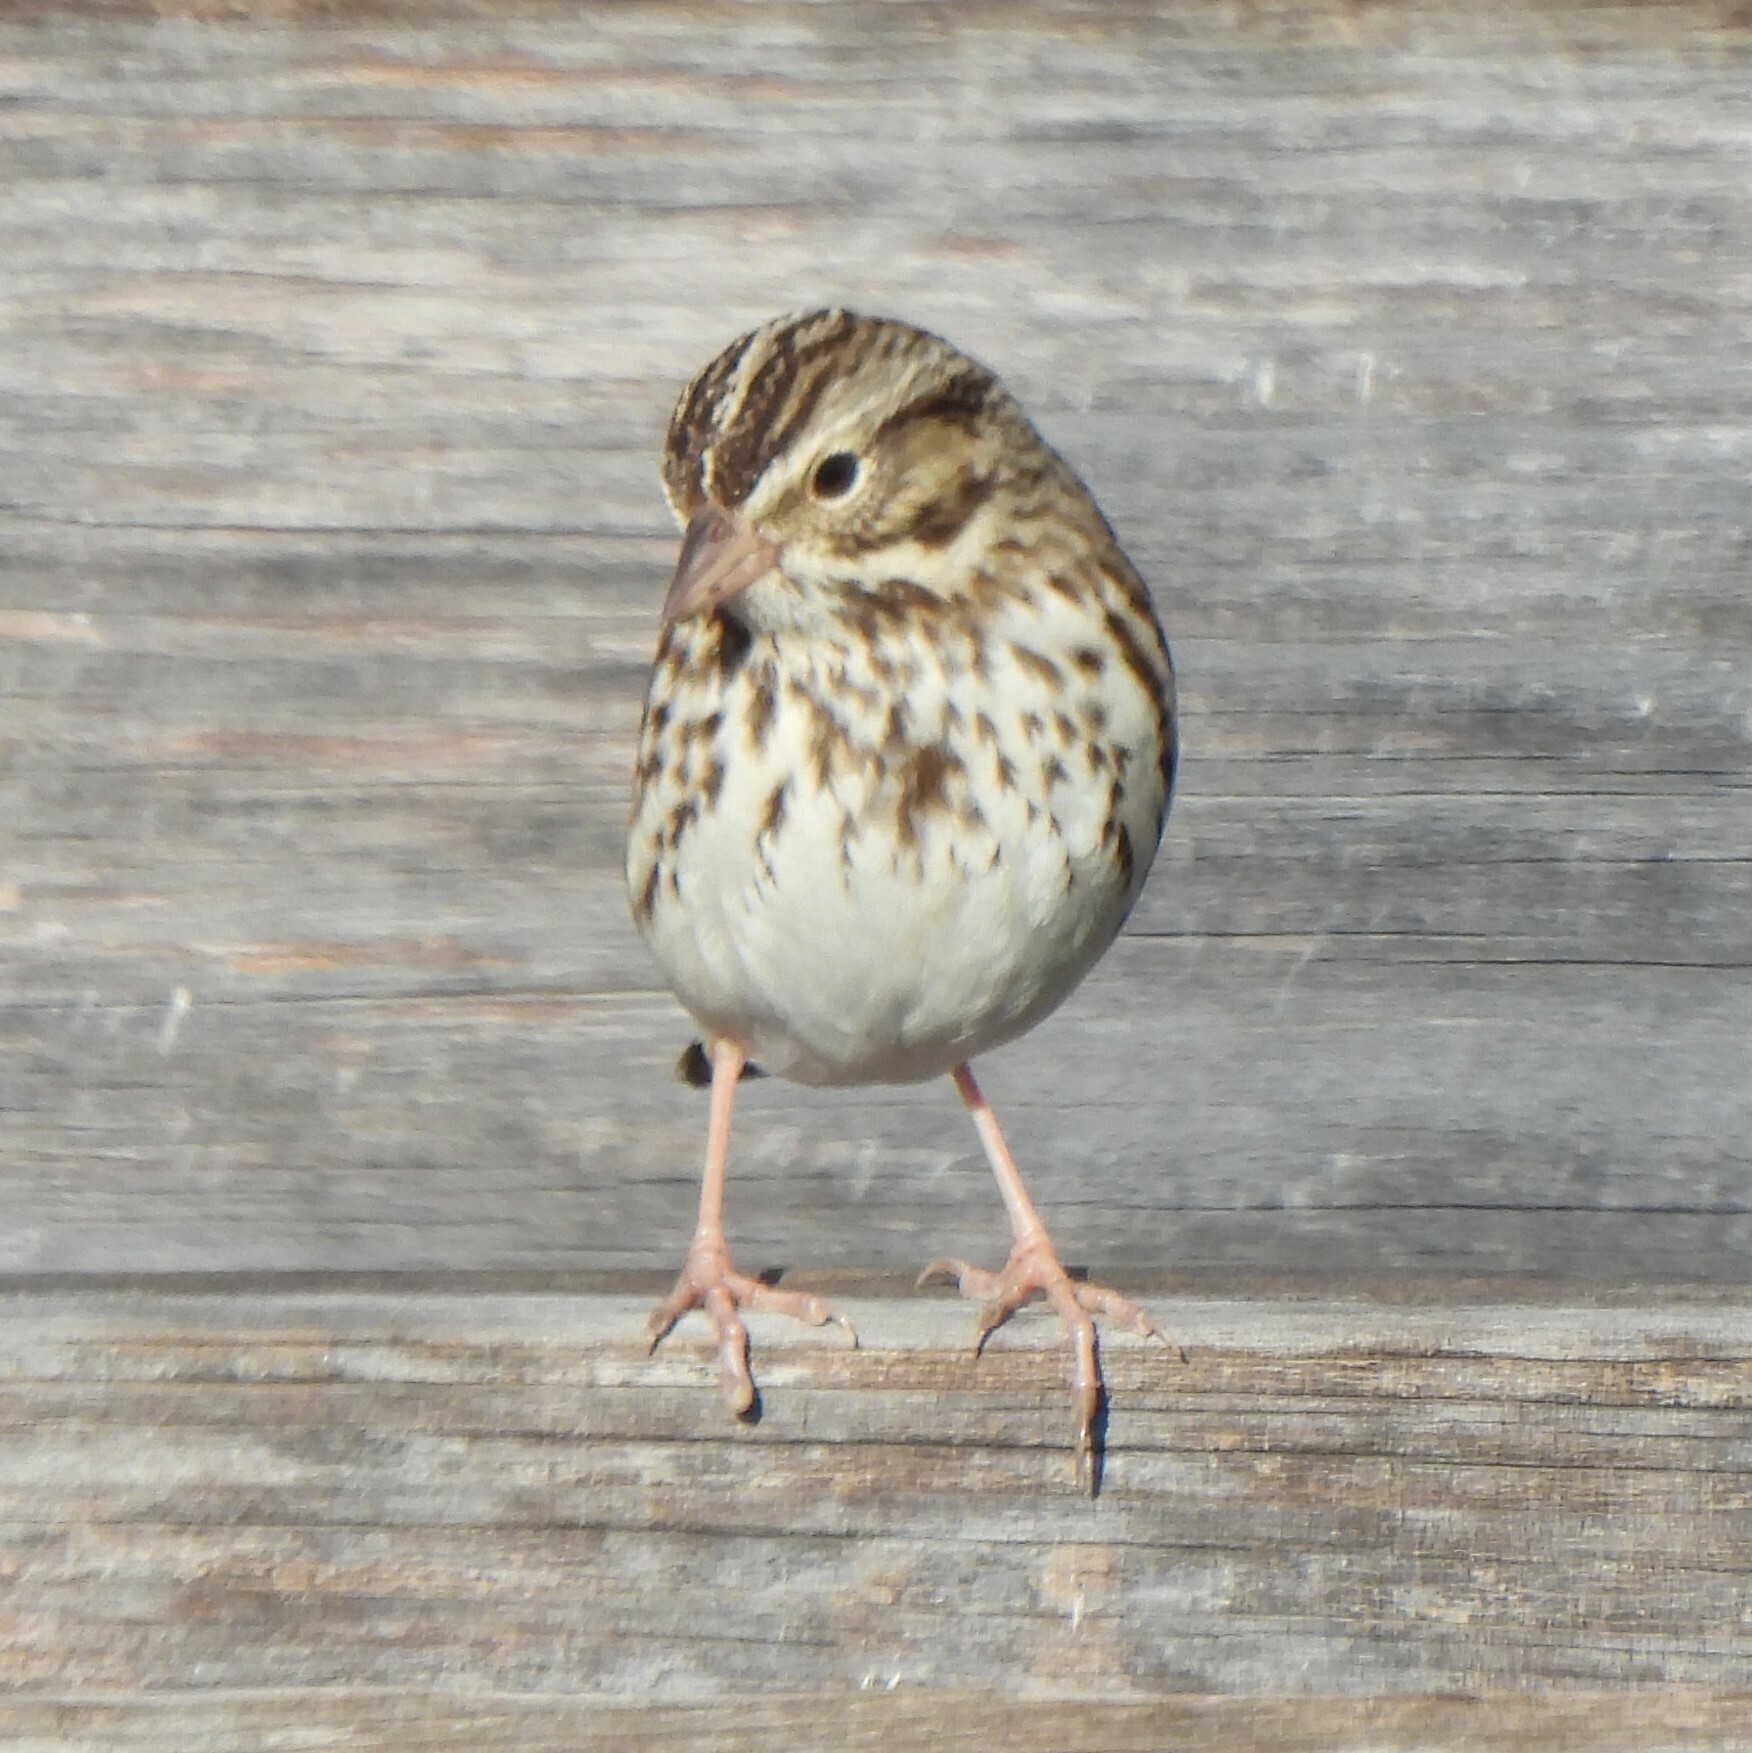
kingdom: Animalia
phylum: Chordata
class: Aves
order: Passeriformes
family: Passerellidae
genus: Passerculus
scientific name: Passerculus sandwichensis
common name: Savannah sparrow
